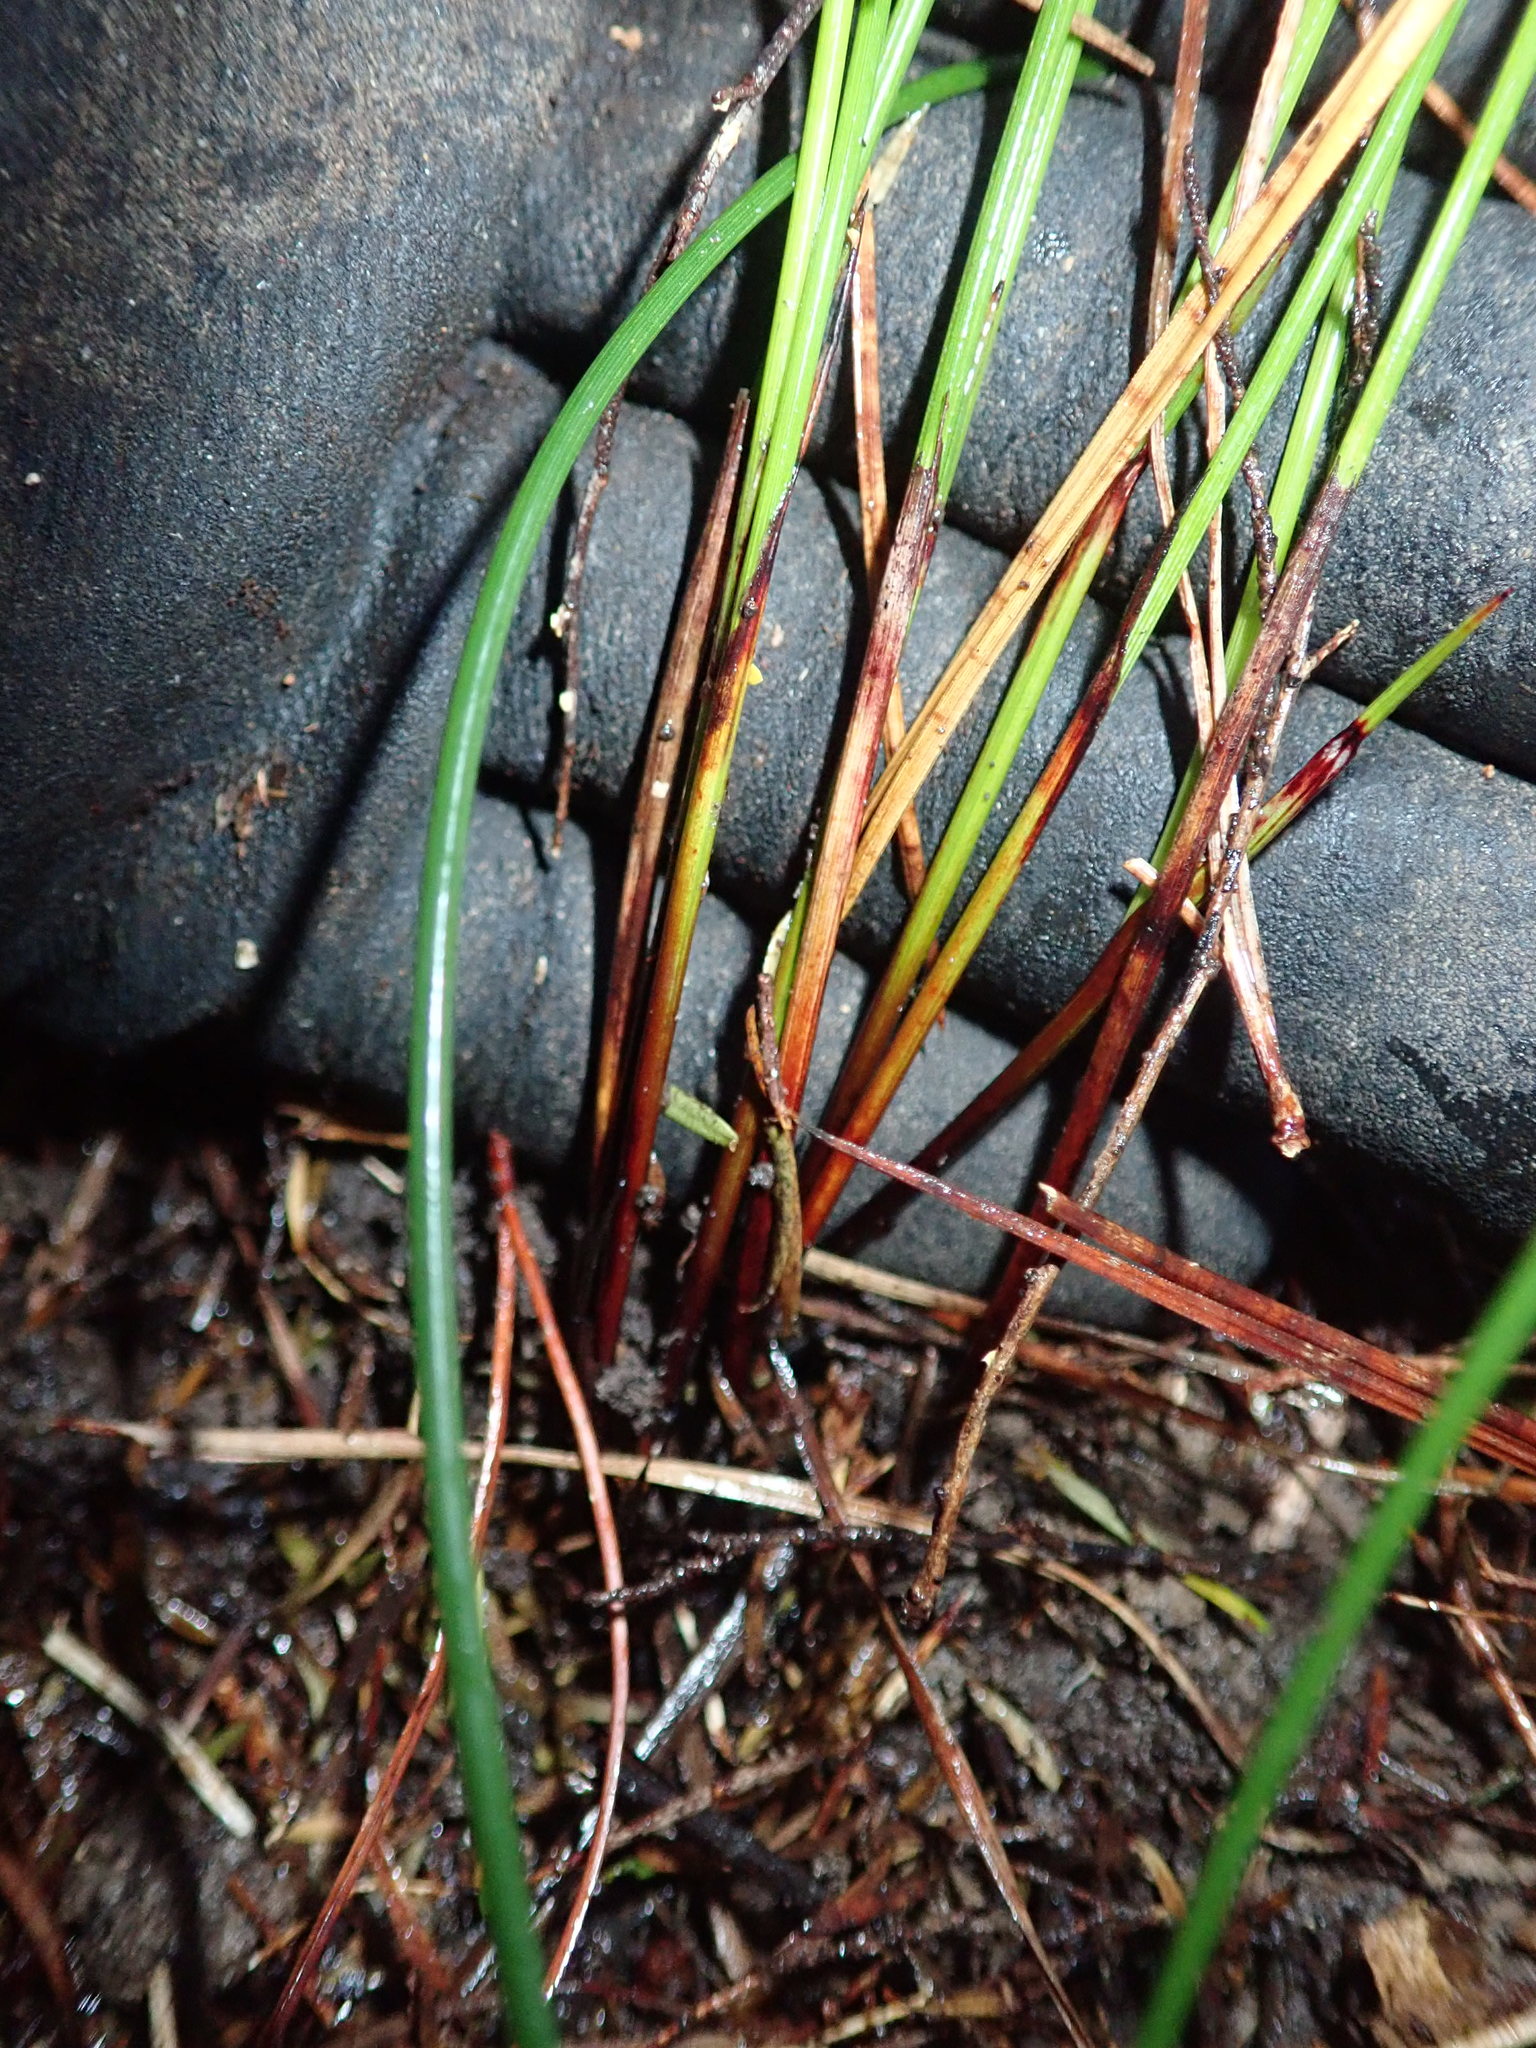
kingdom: Plantae
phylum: Tracheophyta
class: Liliopsida
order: Poales
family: Cyperaceae
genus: Schoenus
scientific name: Schoenus tendo
